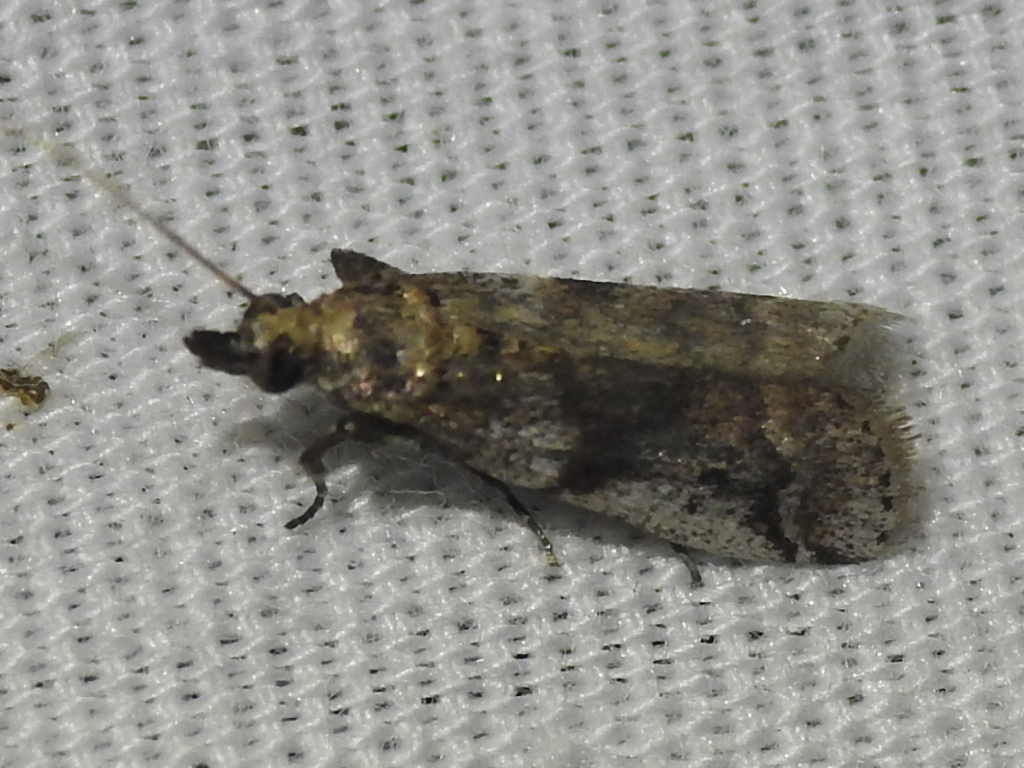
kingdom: Animalia
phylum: Arthropoda
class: Insecta
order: Lepidoptera
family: Pyralidae
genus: Laetilia
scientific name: Laetilia coccidivora
